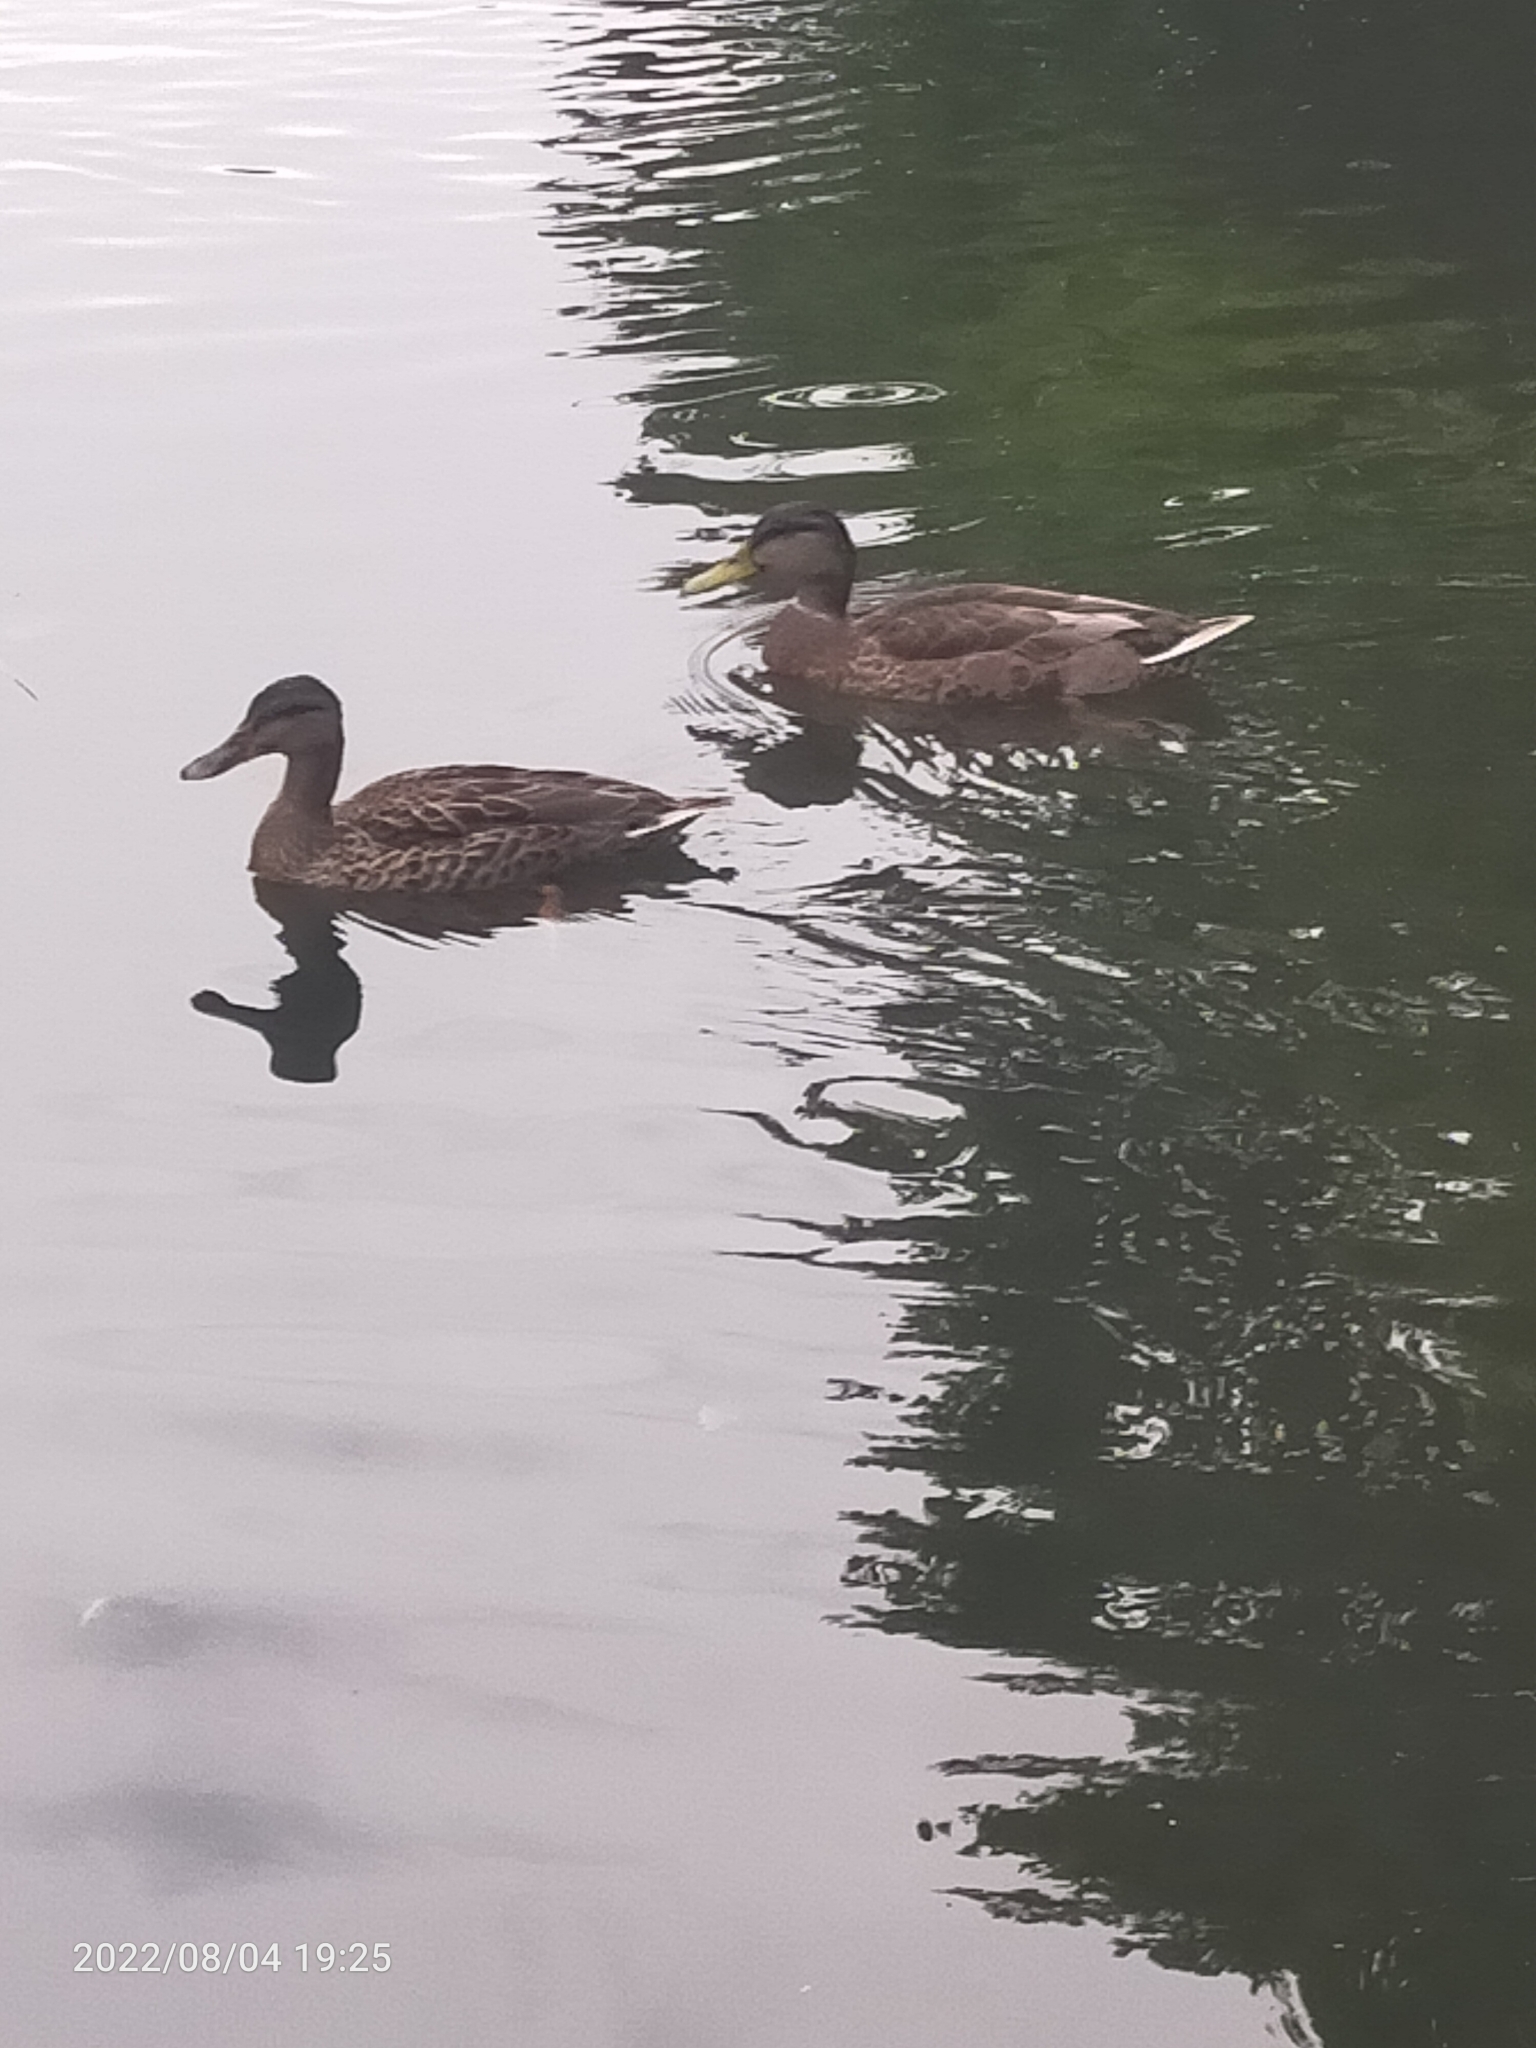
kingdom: Animalia
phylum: Chordata
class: Aves
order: Anseriformes
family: Anatidae
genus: Anas
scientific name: Anas platyrhynchos
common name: Mallard
